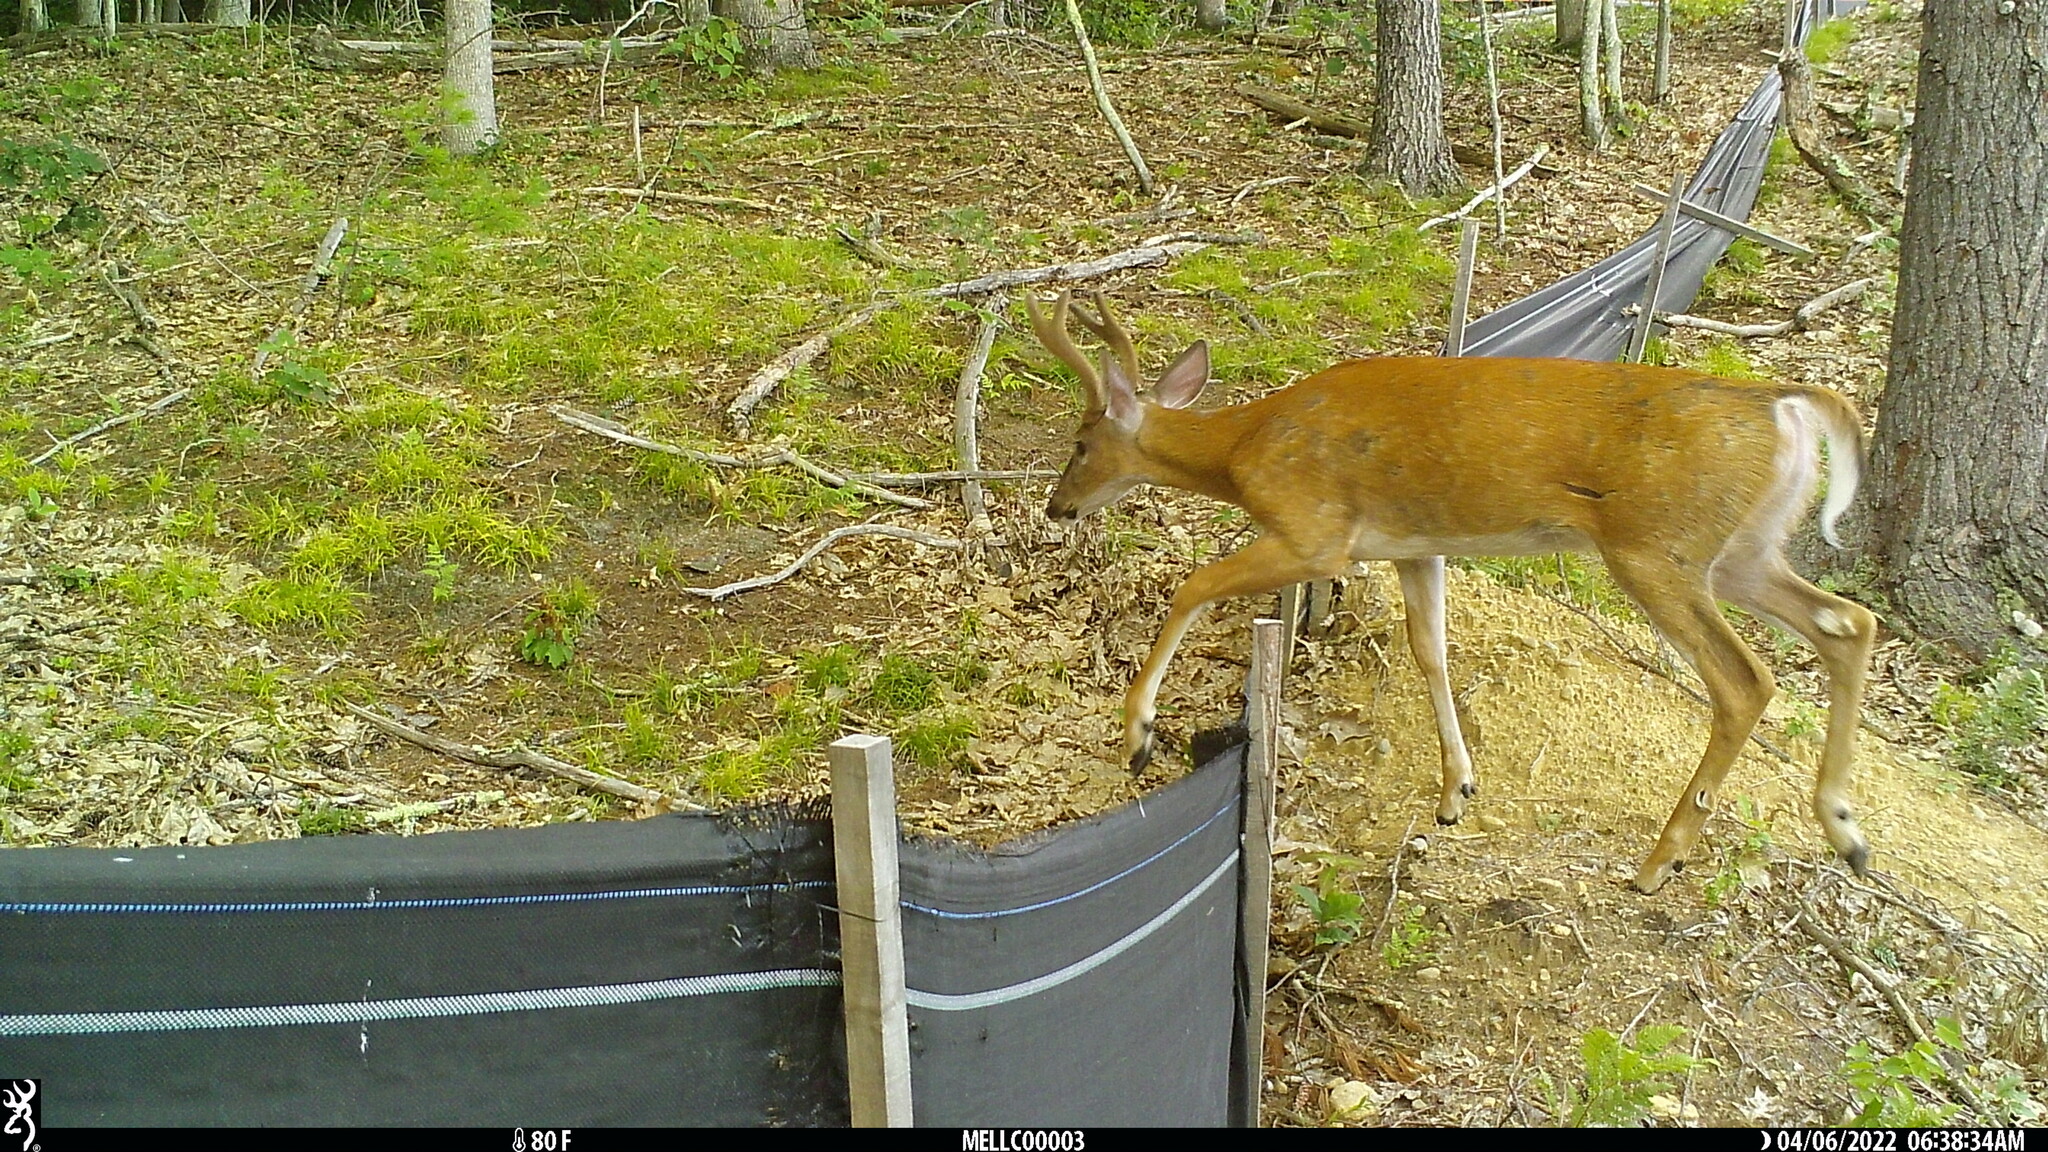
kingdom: Animalia
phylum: Chordata
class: Mammalia
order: Artiodactyla
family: Cervidae
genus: Odocoileus
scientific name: Odocoileus virginianus
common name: White-tailed deer
